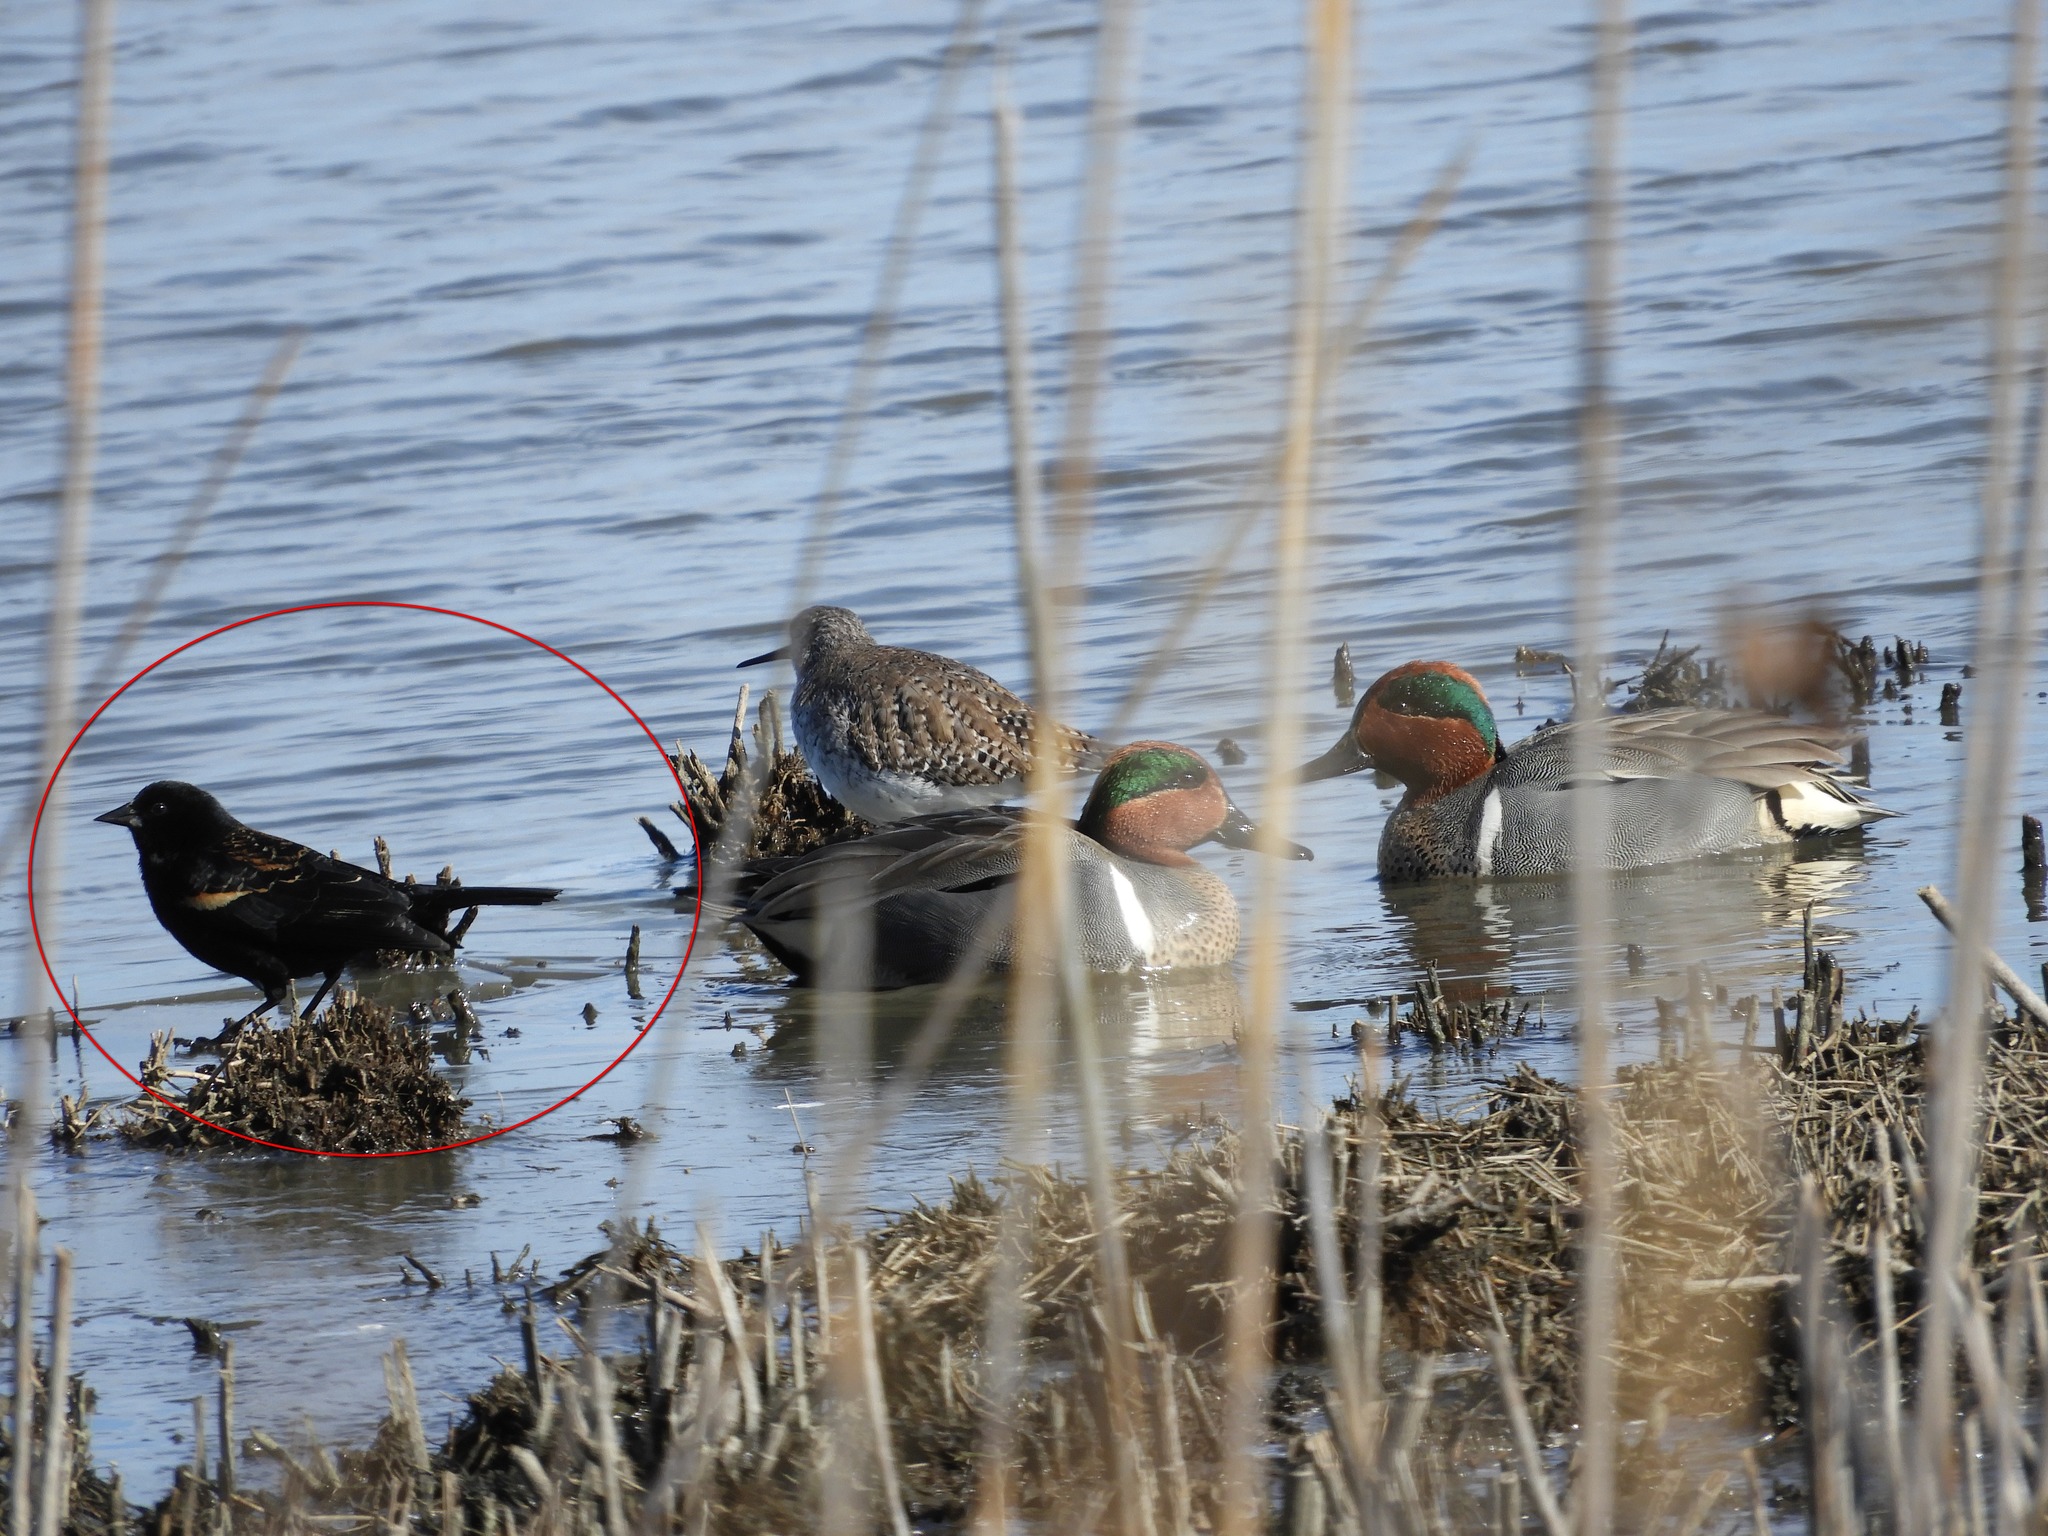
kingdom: Animalia
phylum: Chordata
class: Aves
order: Passeriformes
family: Icteridae
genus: Agelaius
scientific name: Agelaius phoeniceus
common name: Red-winged blackbird
